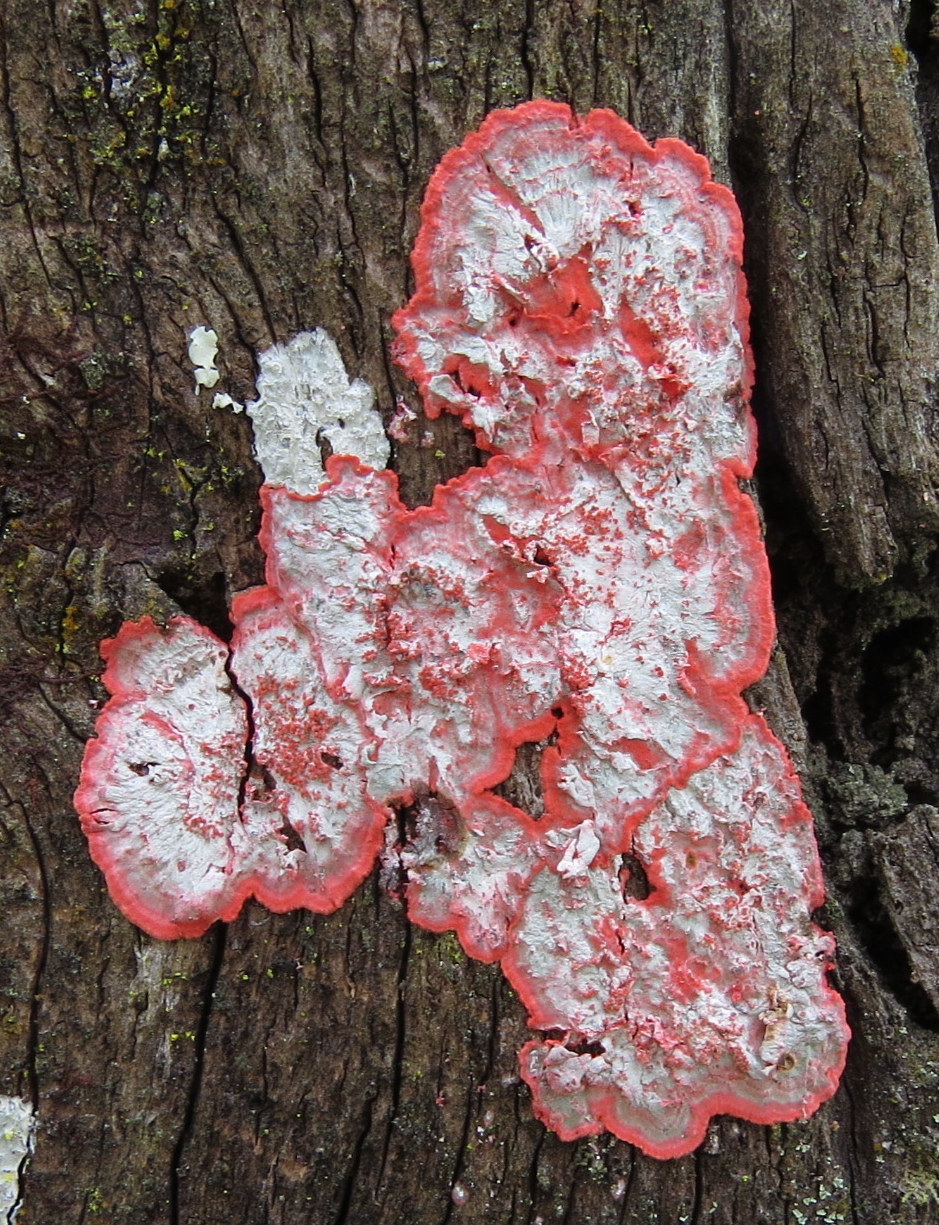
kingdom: Fungi
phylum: Ascomycota
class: Arthoniomycetes
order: Arthoniales
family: Arthoniaceae
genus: Herpothallon
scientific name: Herpothallon rubrocinctum
